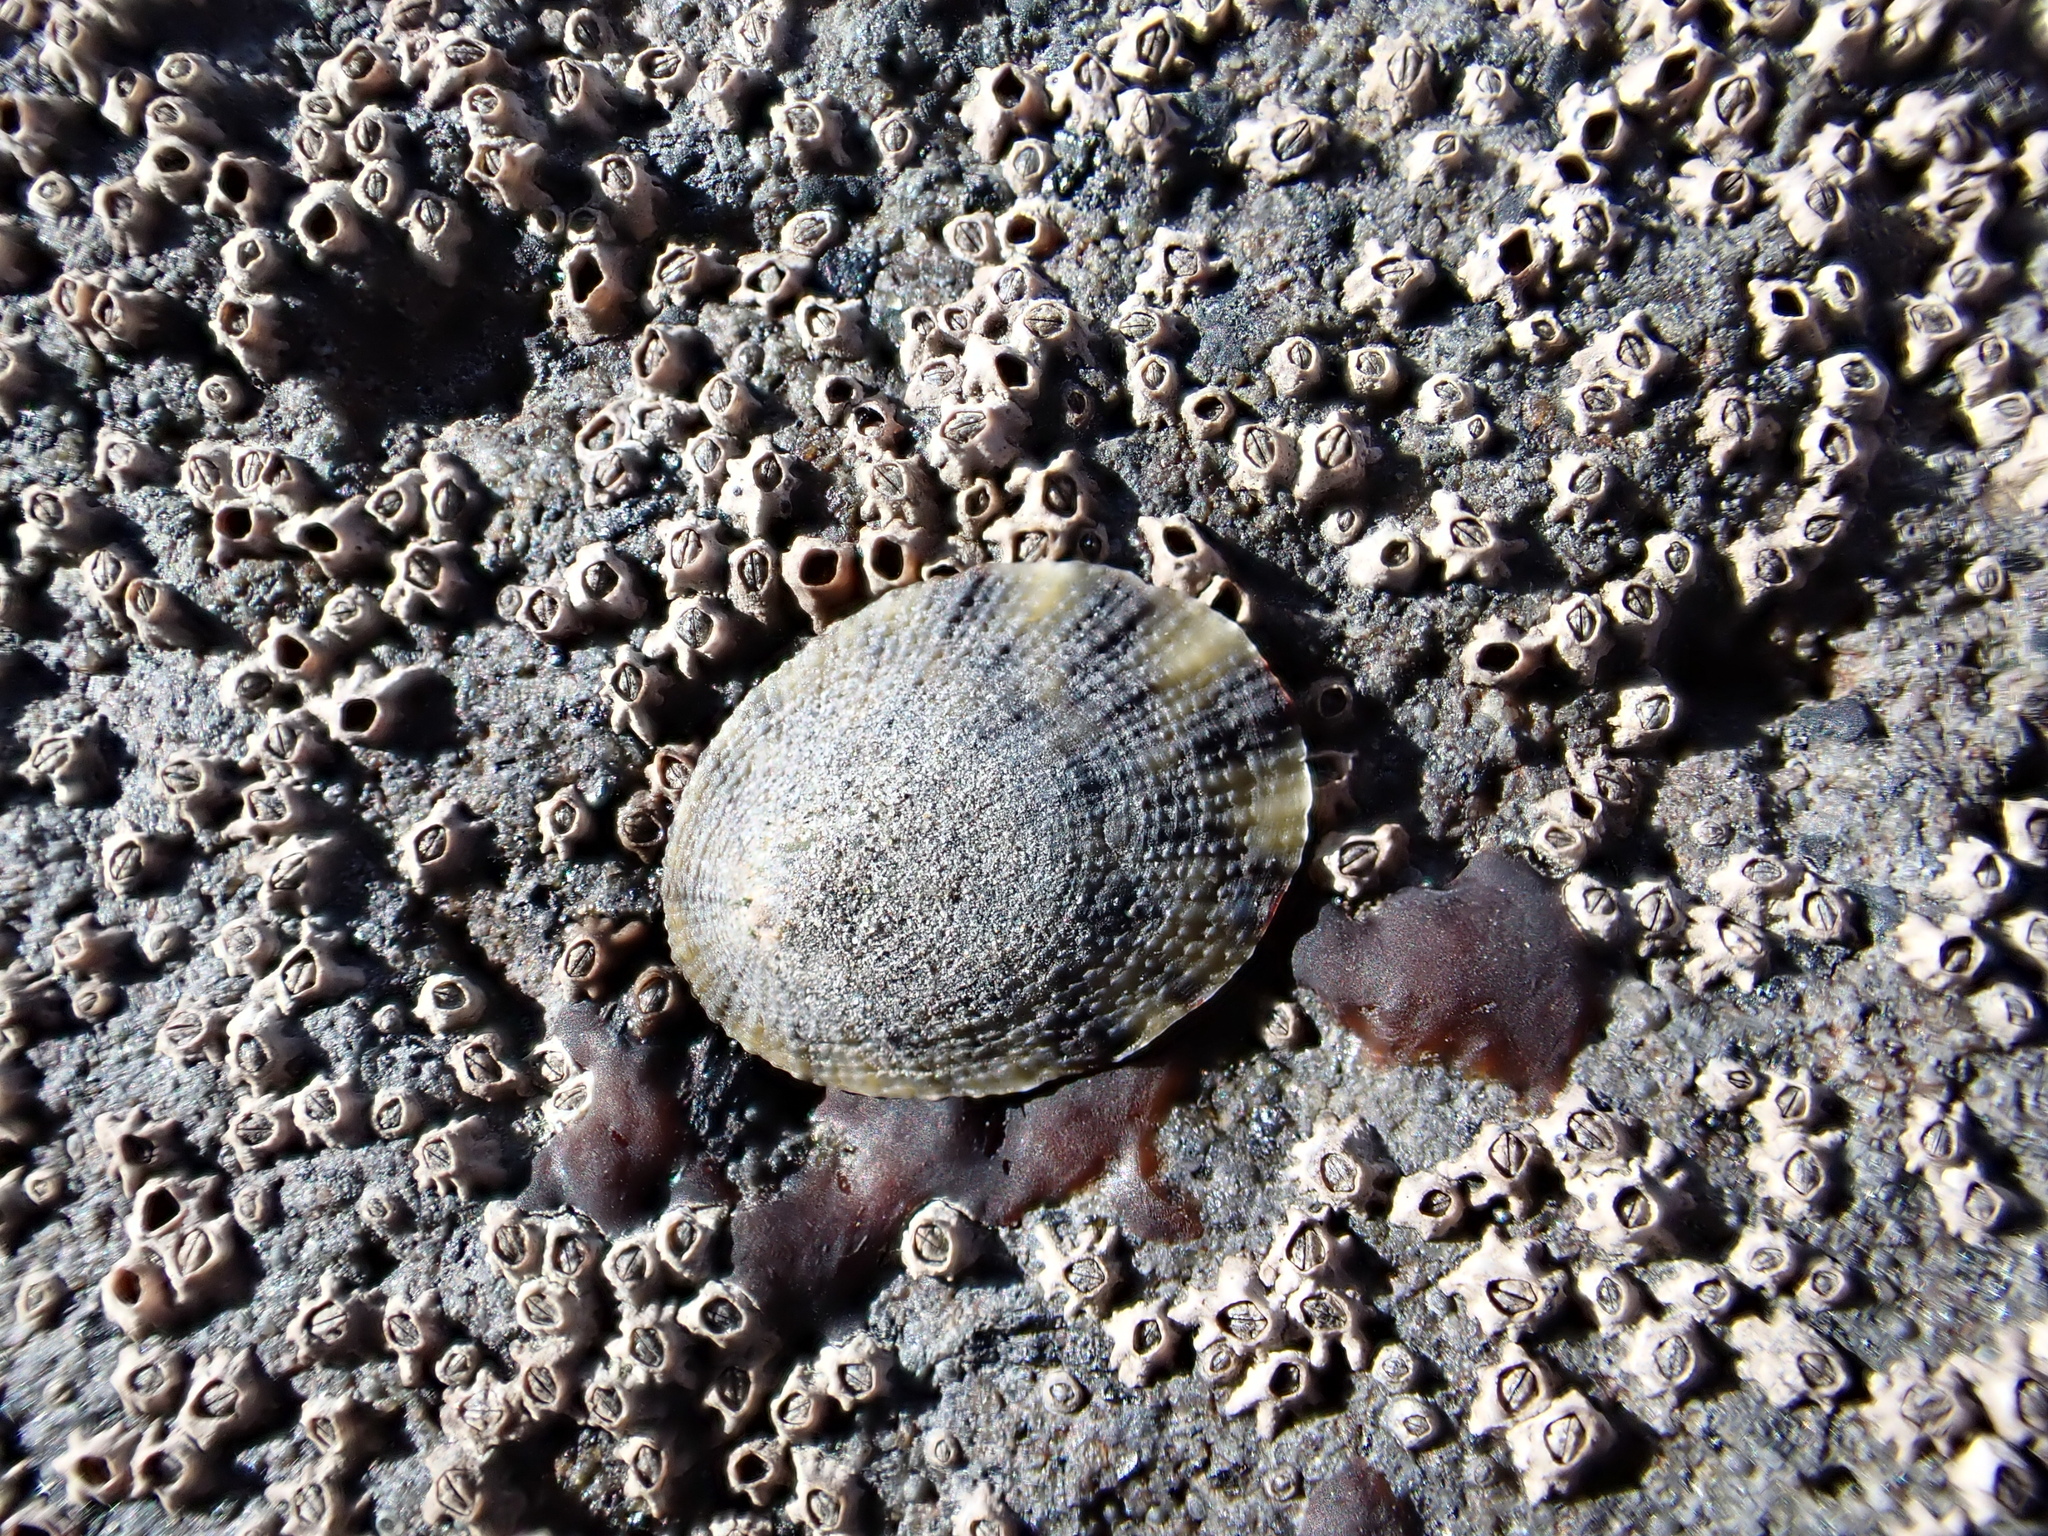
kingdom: Animalia
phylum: Mollusca
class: Gastropoda
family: Nacellidae
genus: Cellana
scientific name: Cellana radians
